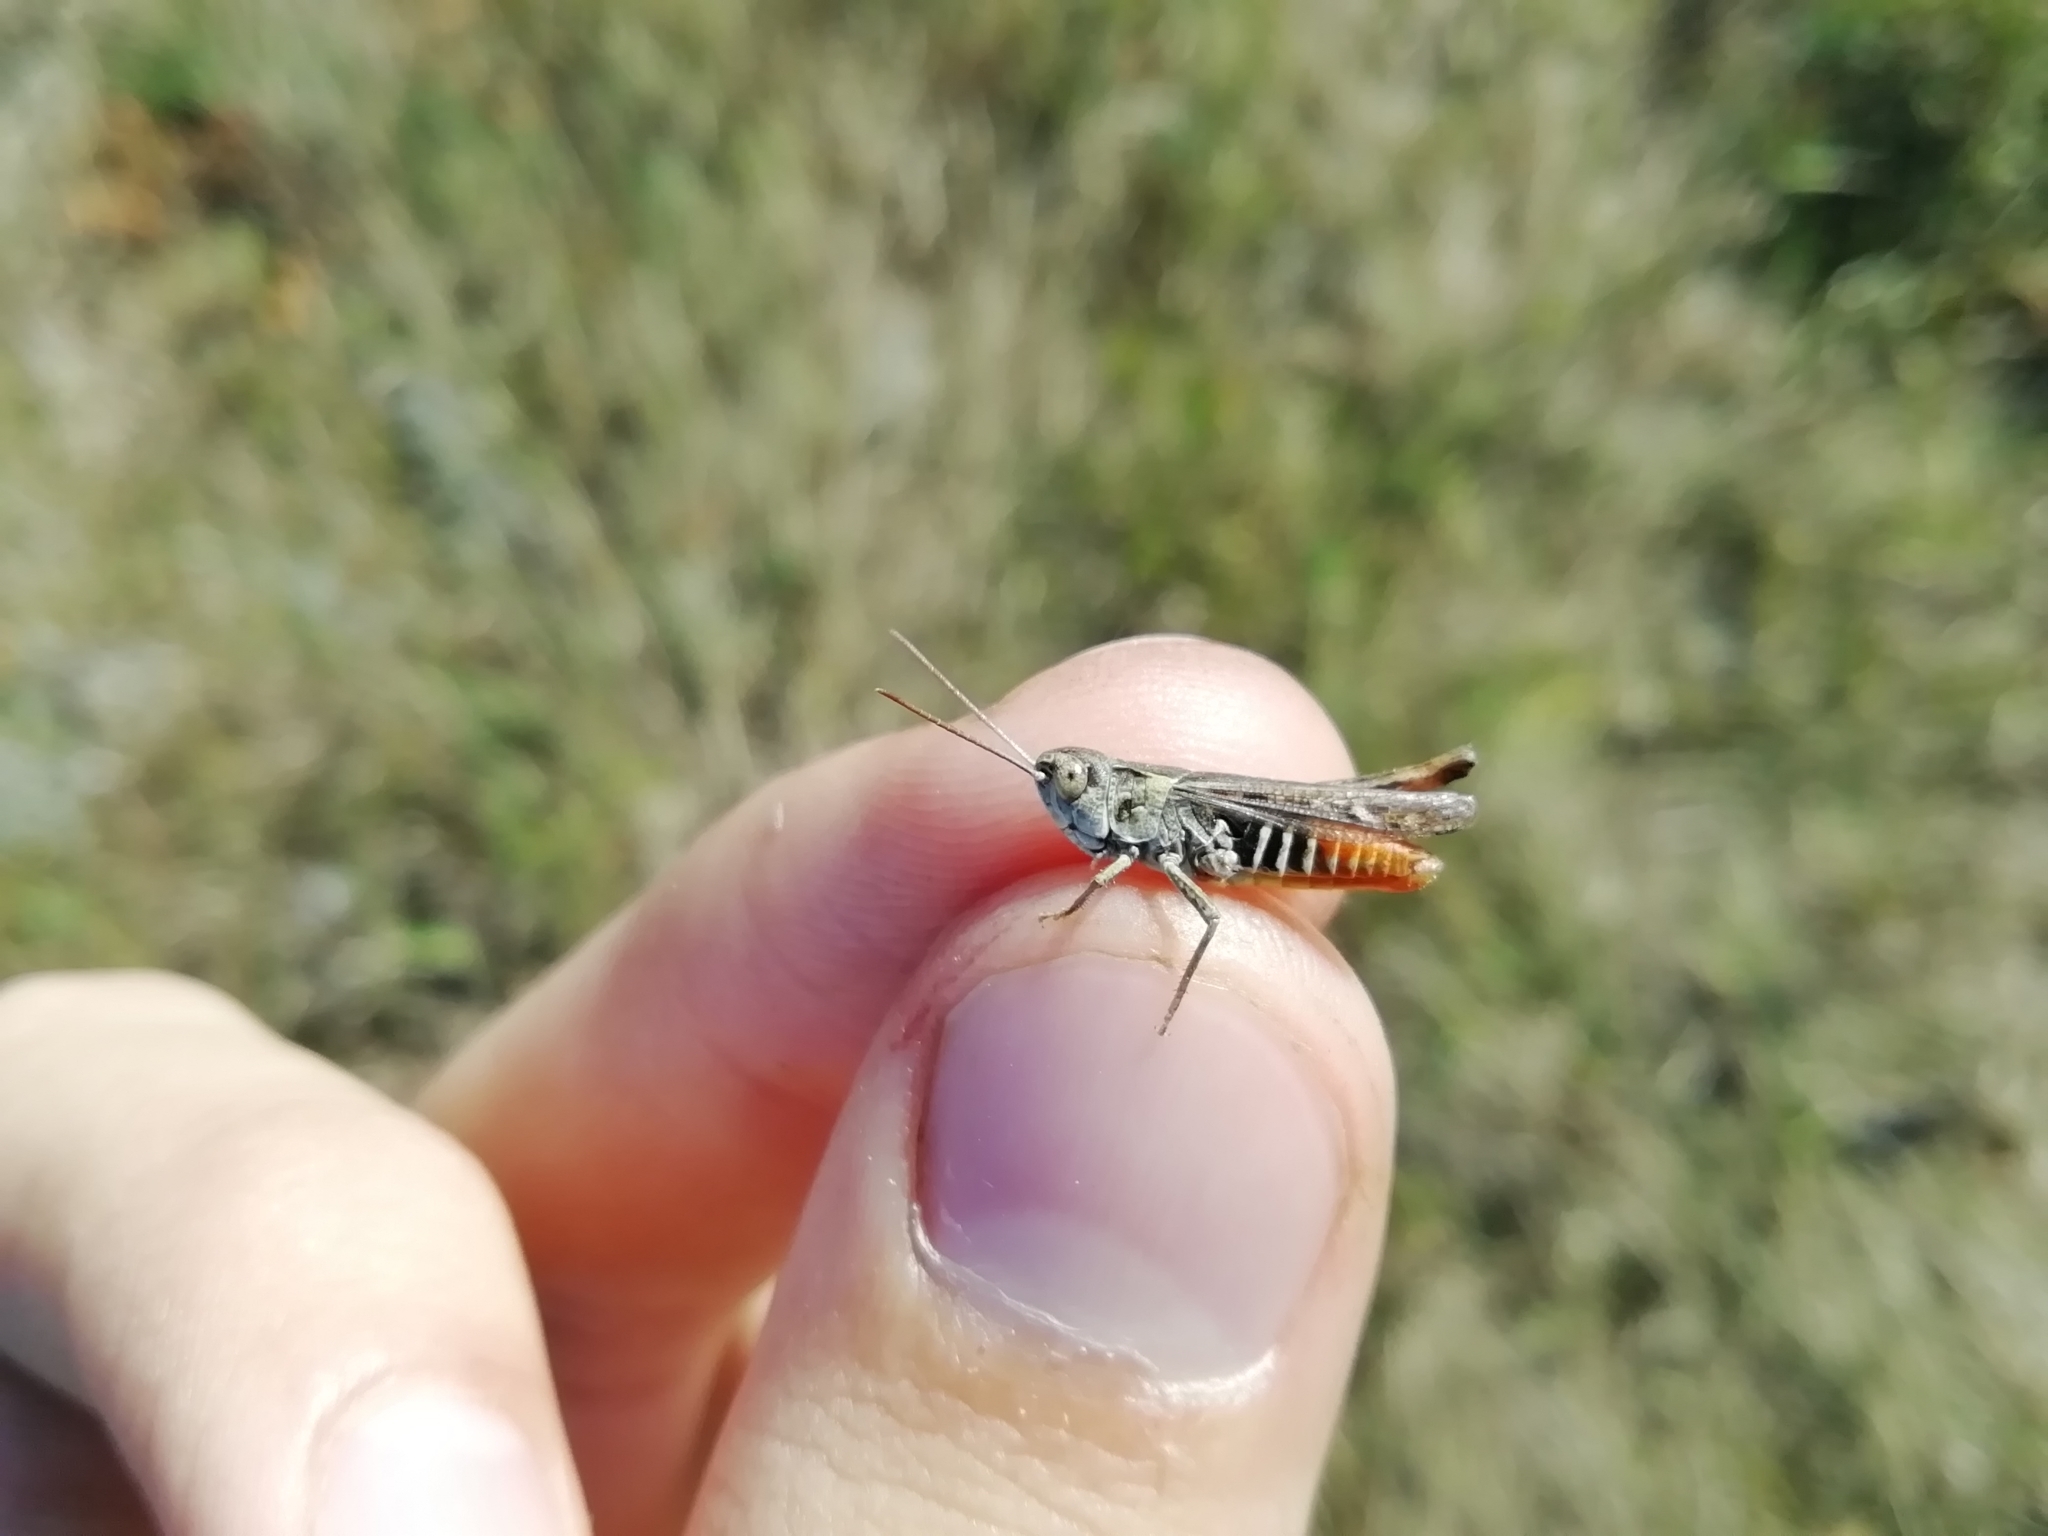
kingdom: Animalia
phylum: Arthropoda
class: Insecta
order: Orthoptera
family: Acrididae
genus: Omocestus
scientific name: Omocestus haemorrhoidalis
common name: Orange-tipped grasshopper
